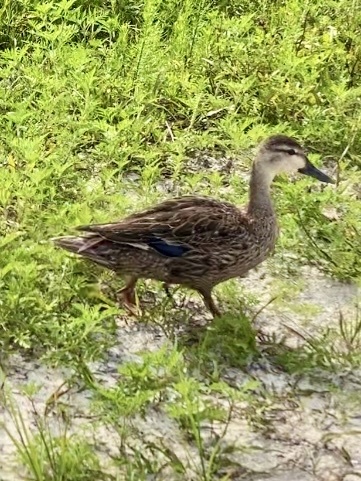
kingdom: Animalia
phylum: Chordata
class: Aves
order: Anseriformes
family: Anatidae
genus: Anas
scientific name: Anas fulvigula
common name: Mottled duck
